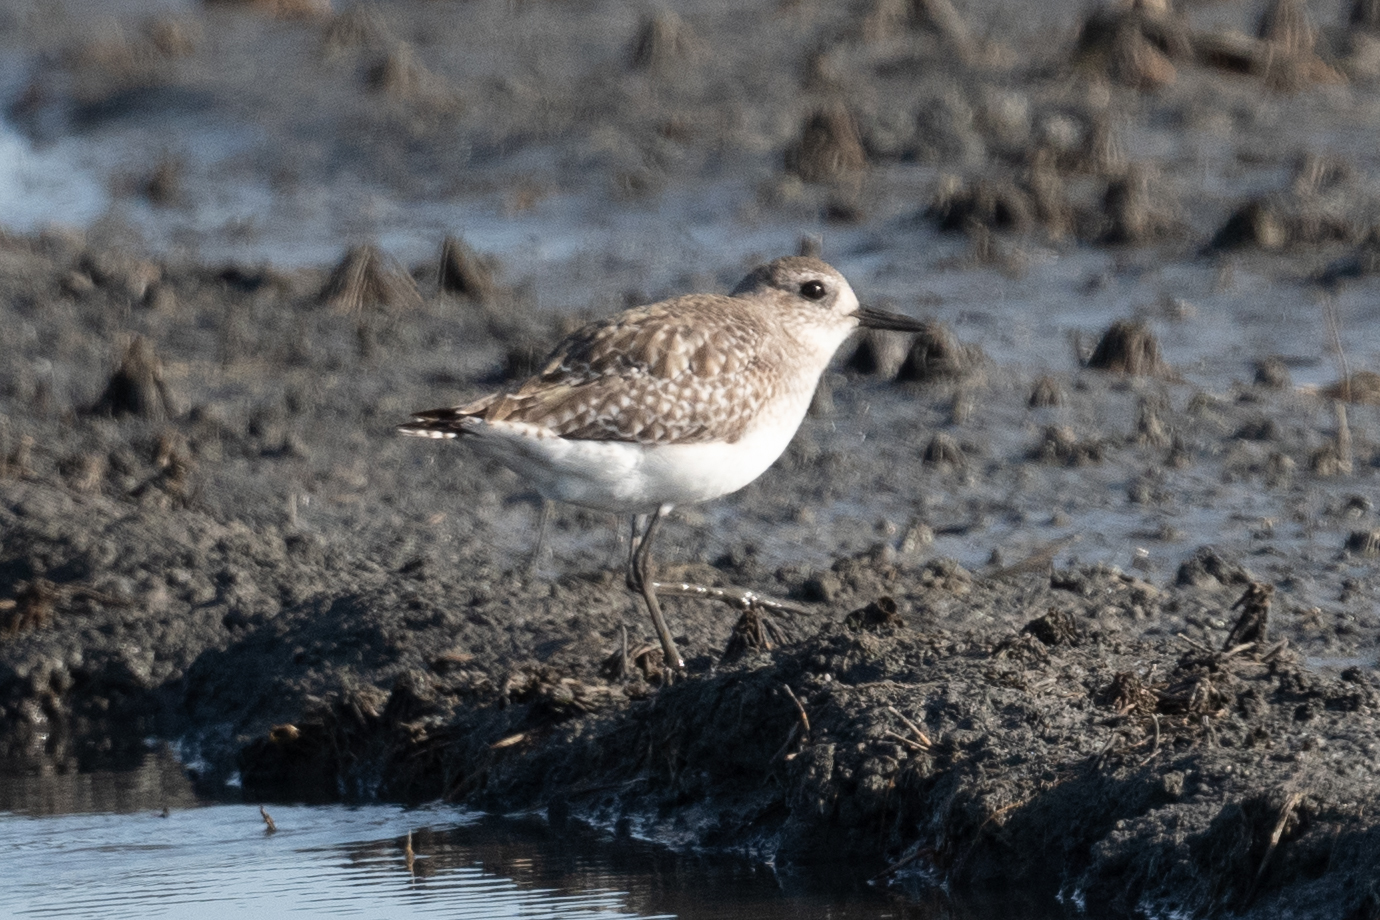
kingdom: Animalia
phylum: Chordata
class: Aves
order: Charadriiformes
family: Charadriidae
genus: Pluvialis
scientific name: Pluvialis squatarola
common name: Grey plover
